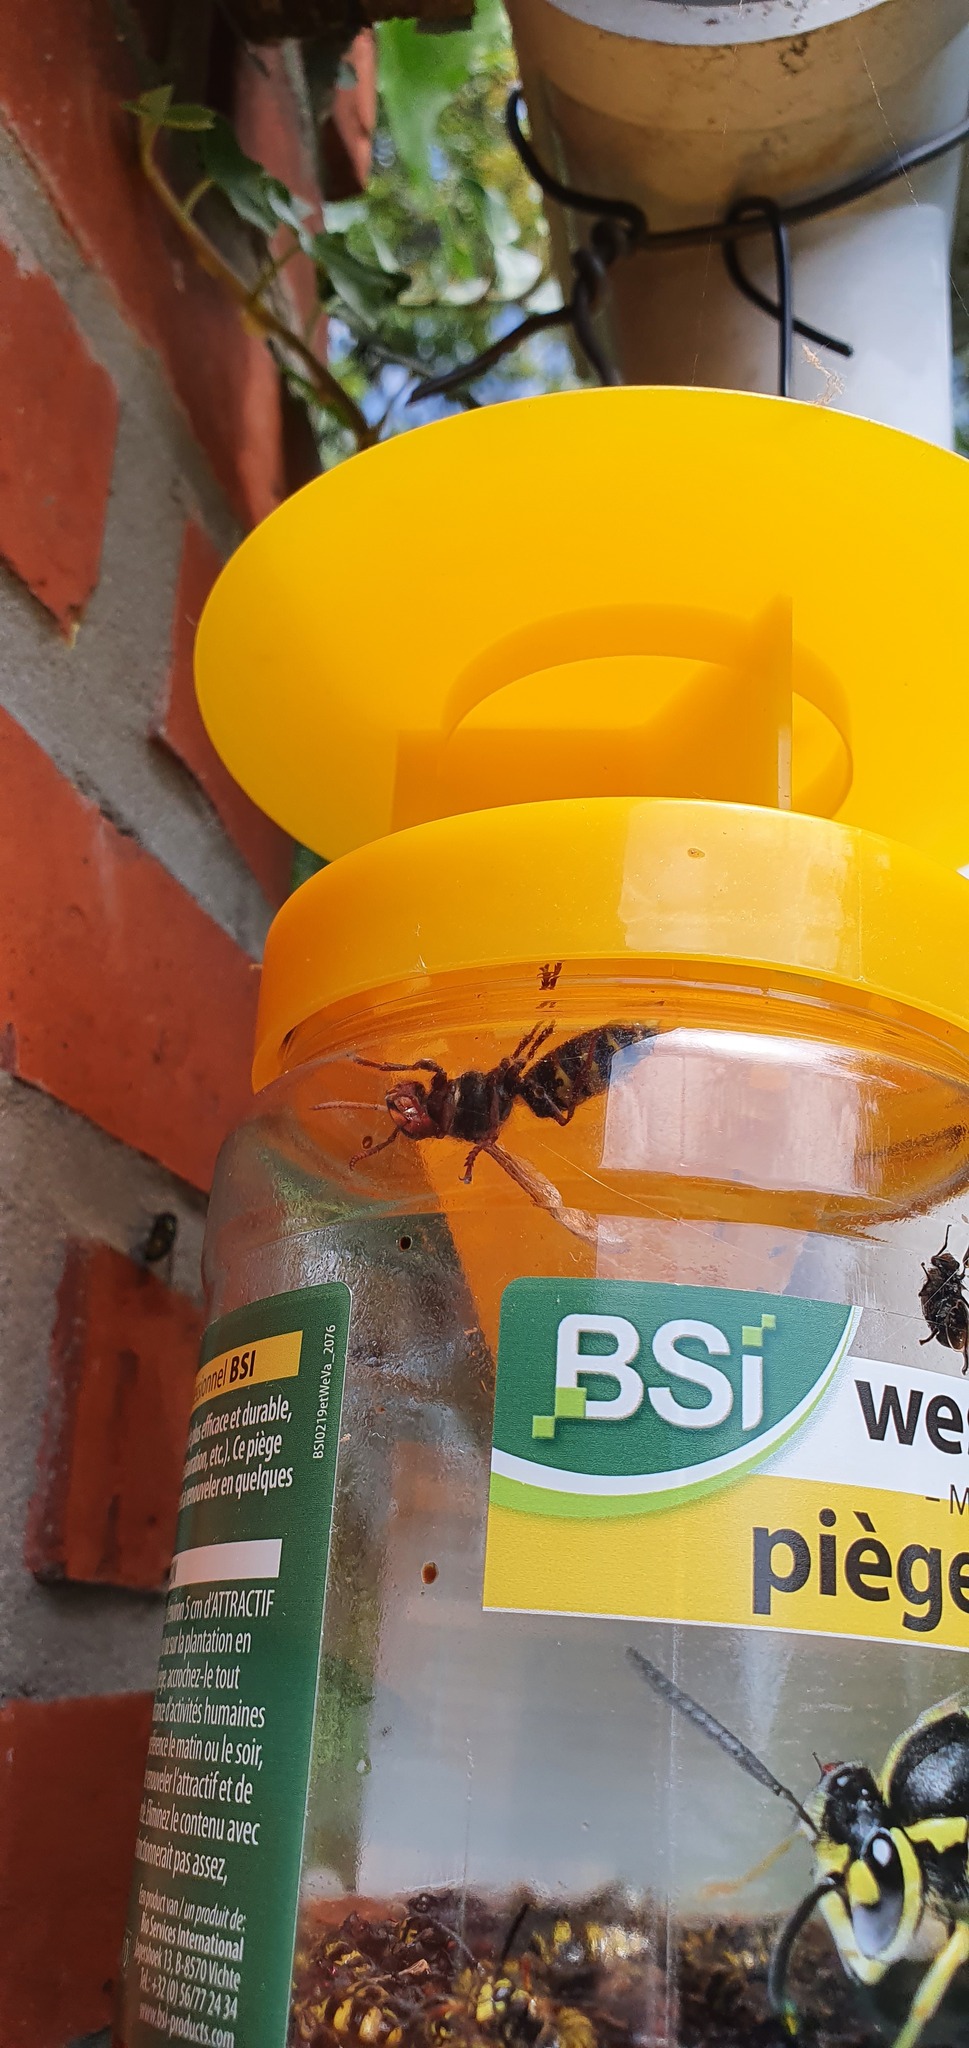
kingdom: Animalia
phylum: Arthropoda
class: Insecta
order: Hymenoptera
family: Vespidae
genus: Vespa
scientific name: Vespa crabro
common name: Hornet
